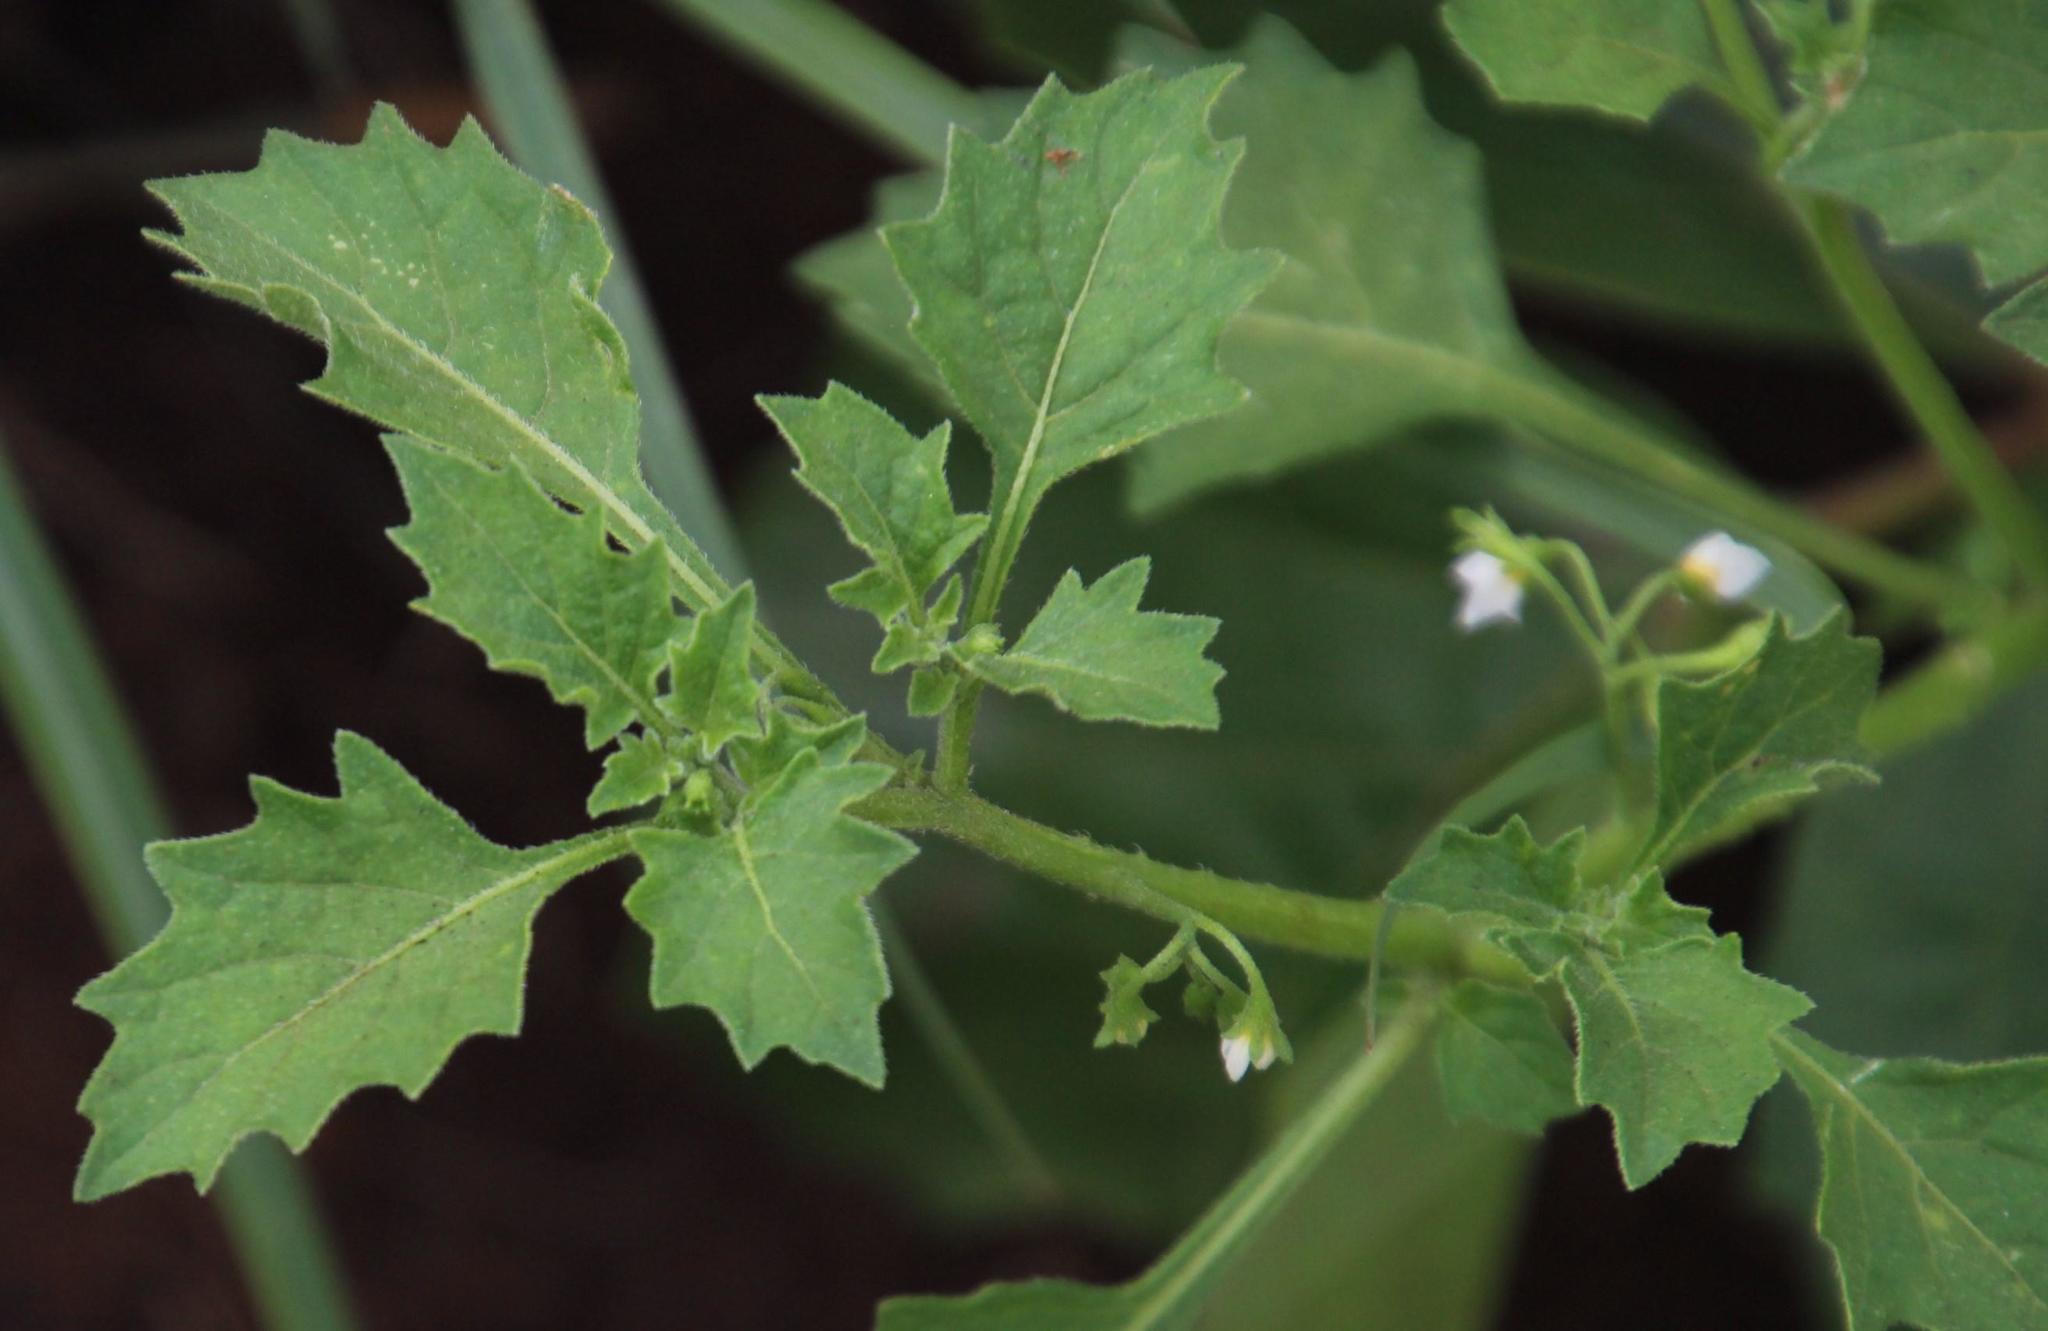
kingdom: Plantae
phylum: Tracheophyta
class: Magnoliopsida
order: Solanales
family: Solanaceae
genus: Solanum
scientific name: Solanum retroflexum
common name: Wonderberry
